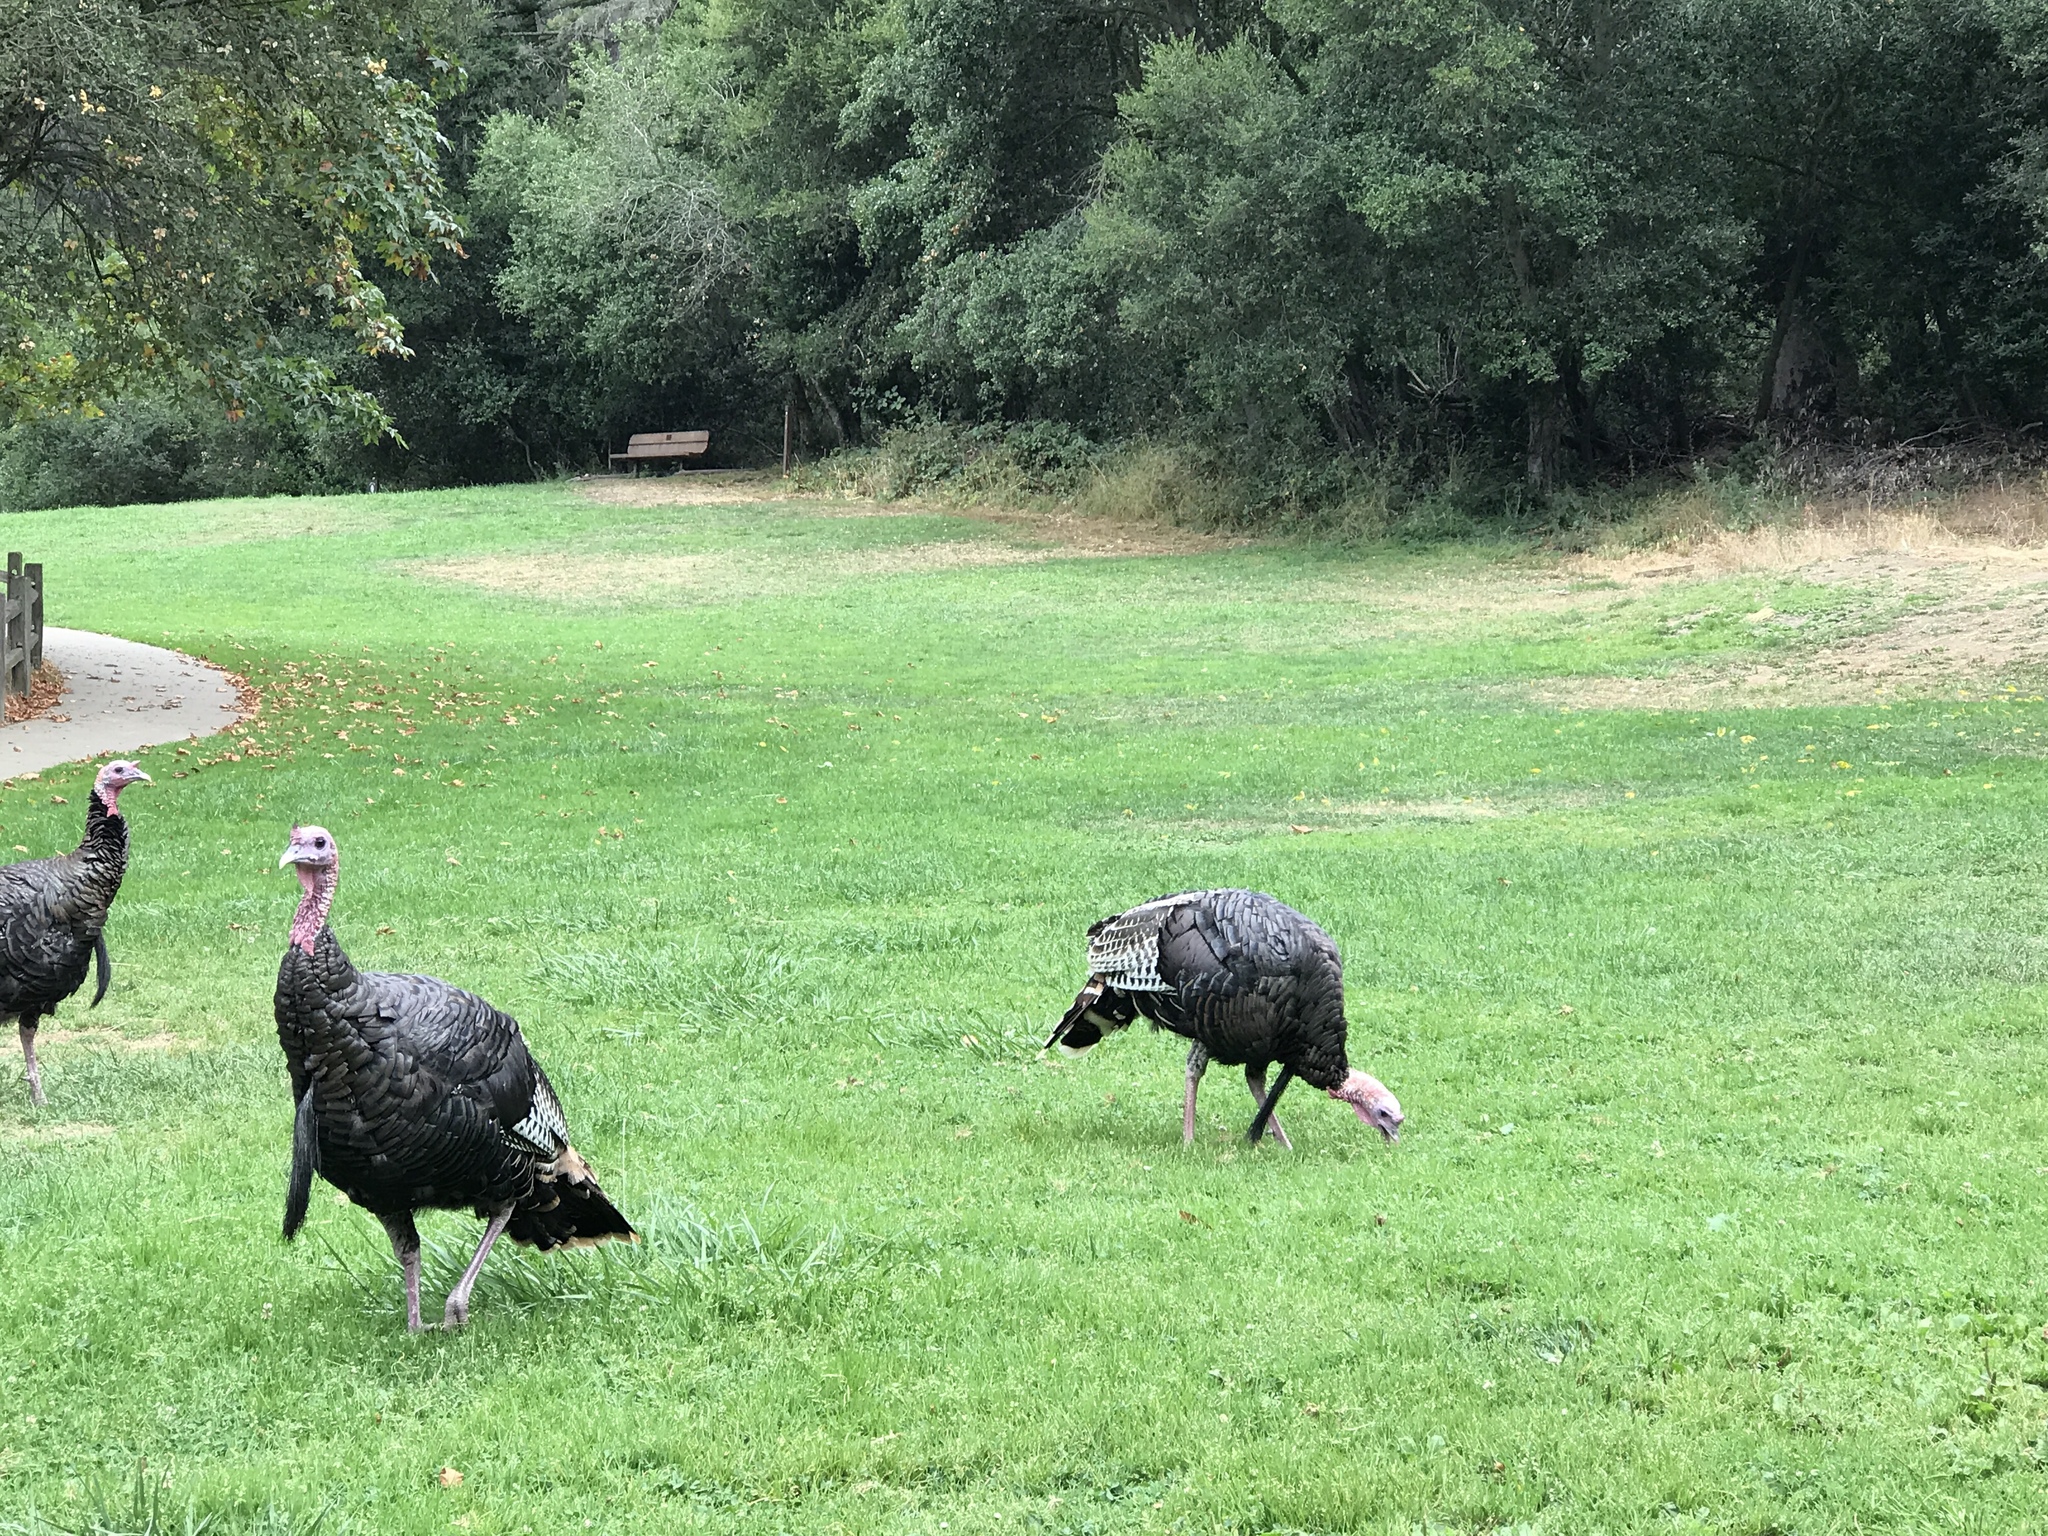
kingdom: Animalia
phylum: Chordata
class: Aves
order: Galliformes
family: Phasianidae
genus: Meleagris
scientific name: Meleagris gallopavo
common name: Wild turkey
